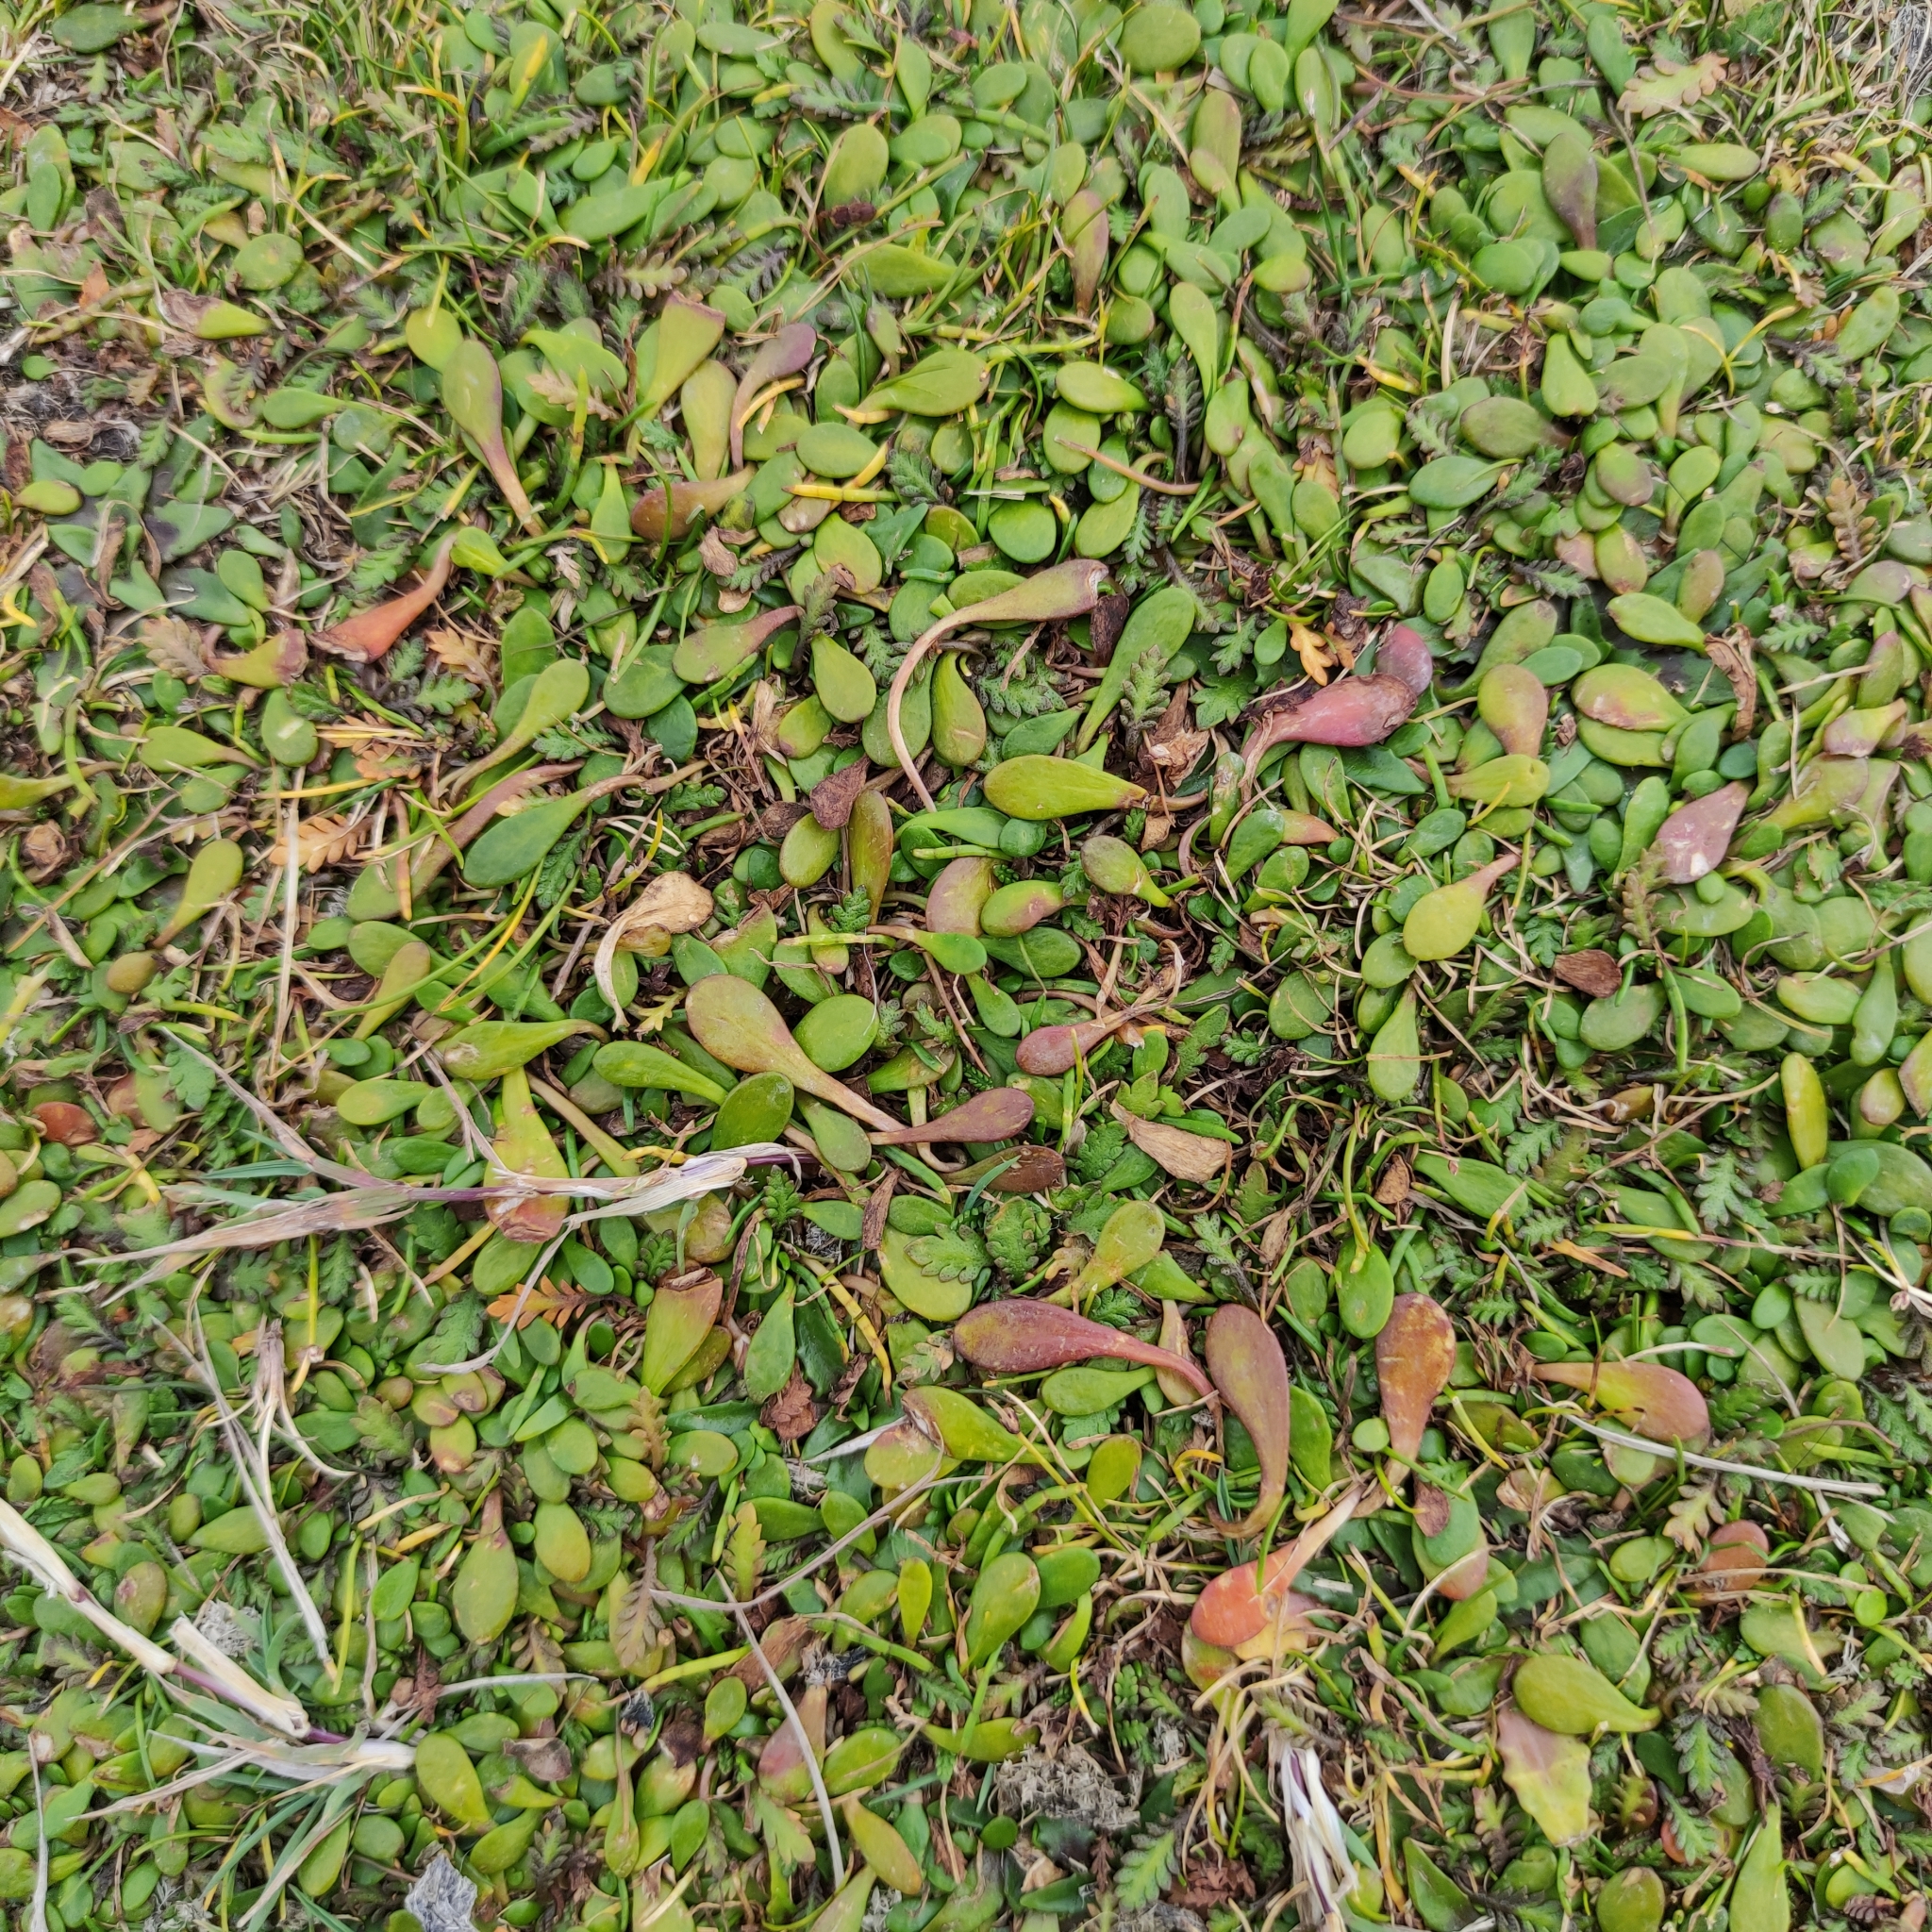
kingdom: Plantae
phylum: Tracheophyta
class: Magnoliopsida
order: Asterales
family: Goodeniaceae
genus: Goodenia
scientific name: Goodenia radicans
